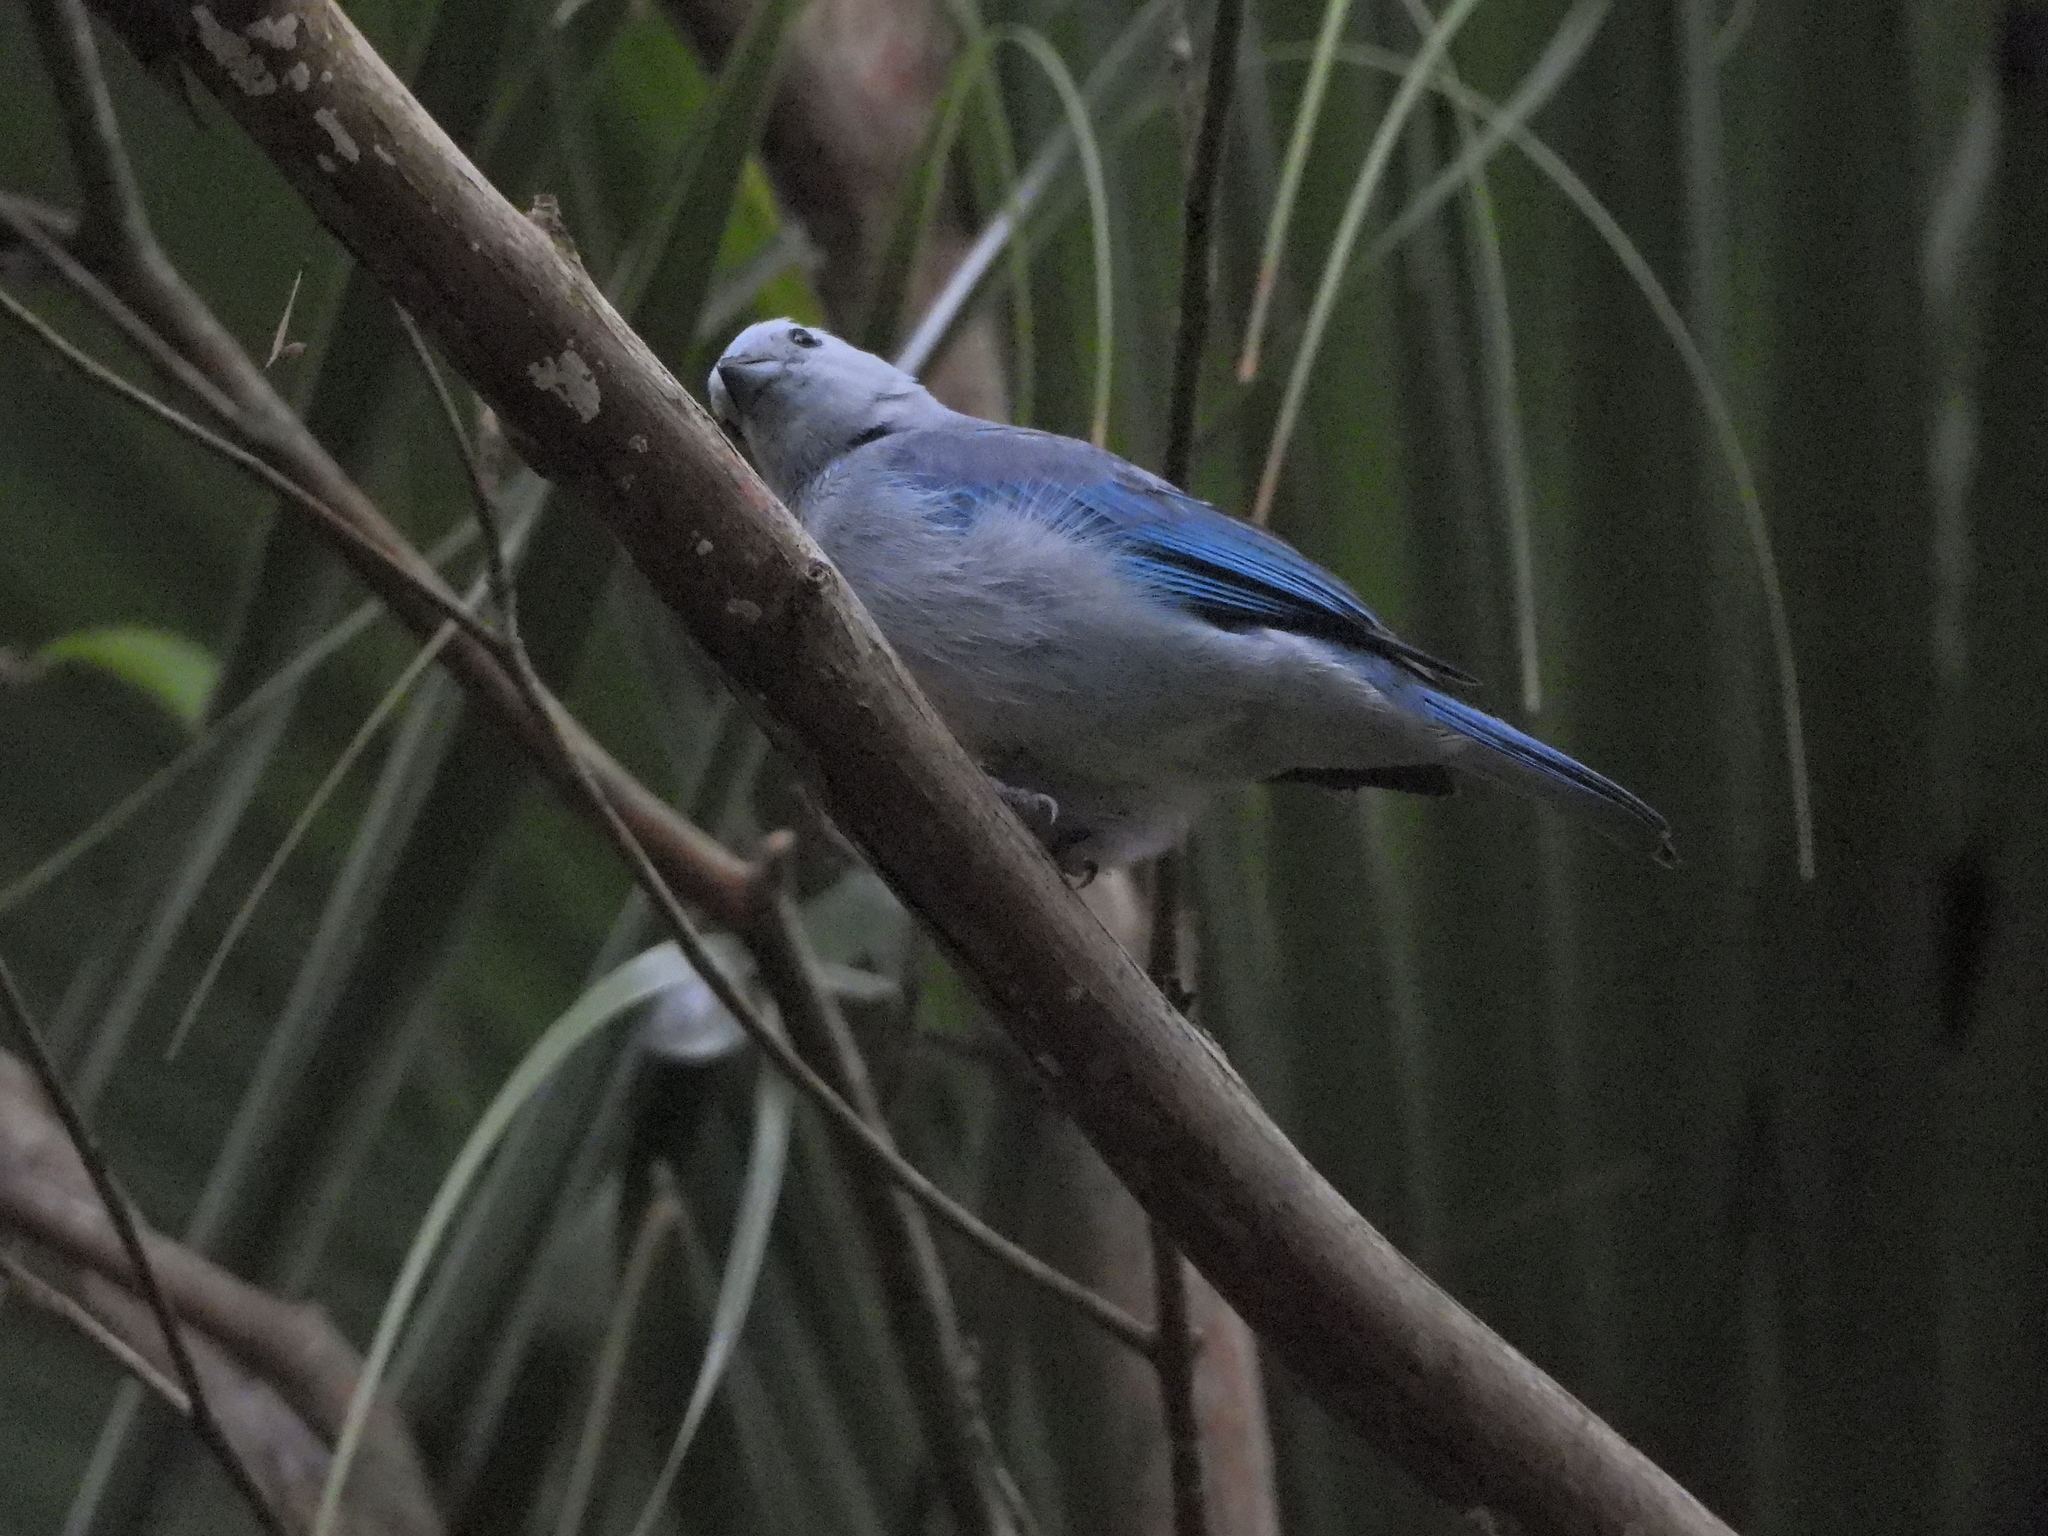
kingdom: Animalia
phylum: Chordata
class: Aves
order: Passeriformes
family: Thraupidae
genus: Thraupis
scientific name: Thraupis episcopus
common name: Blue-grey tanager
